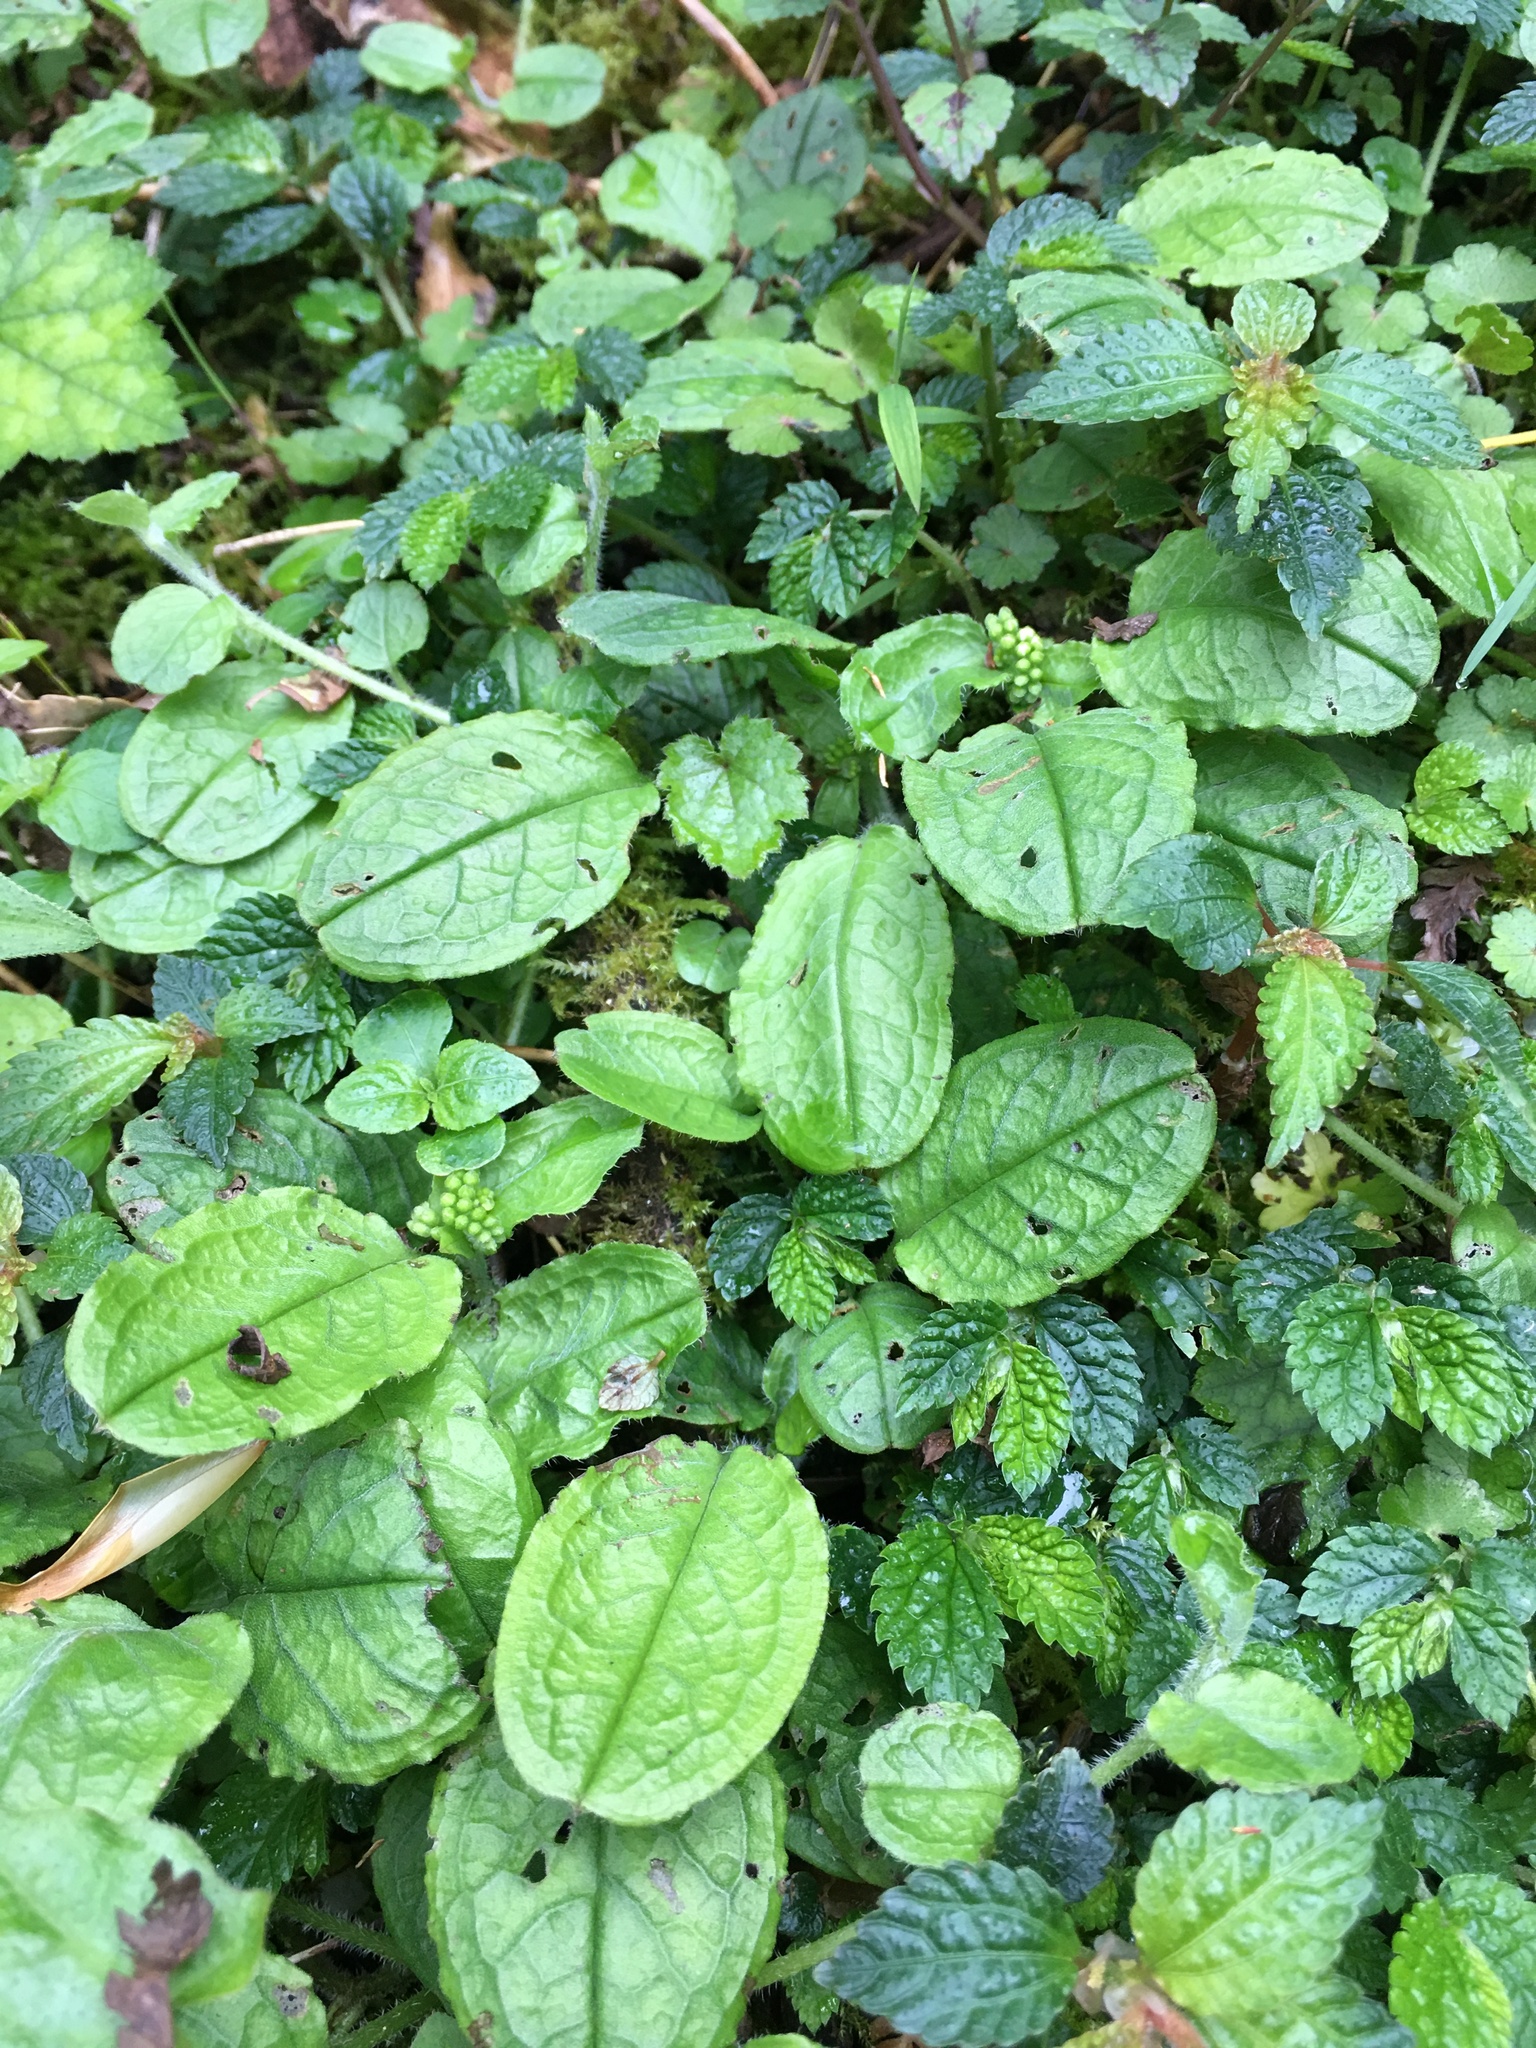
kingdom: Plantae
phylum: Tracheophyta
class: Magnoliopsida
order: Boraginales
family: Boraginaceae
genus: Trigonotis
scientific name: Trigonotis formosana
